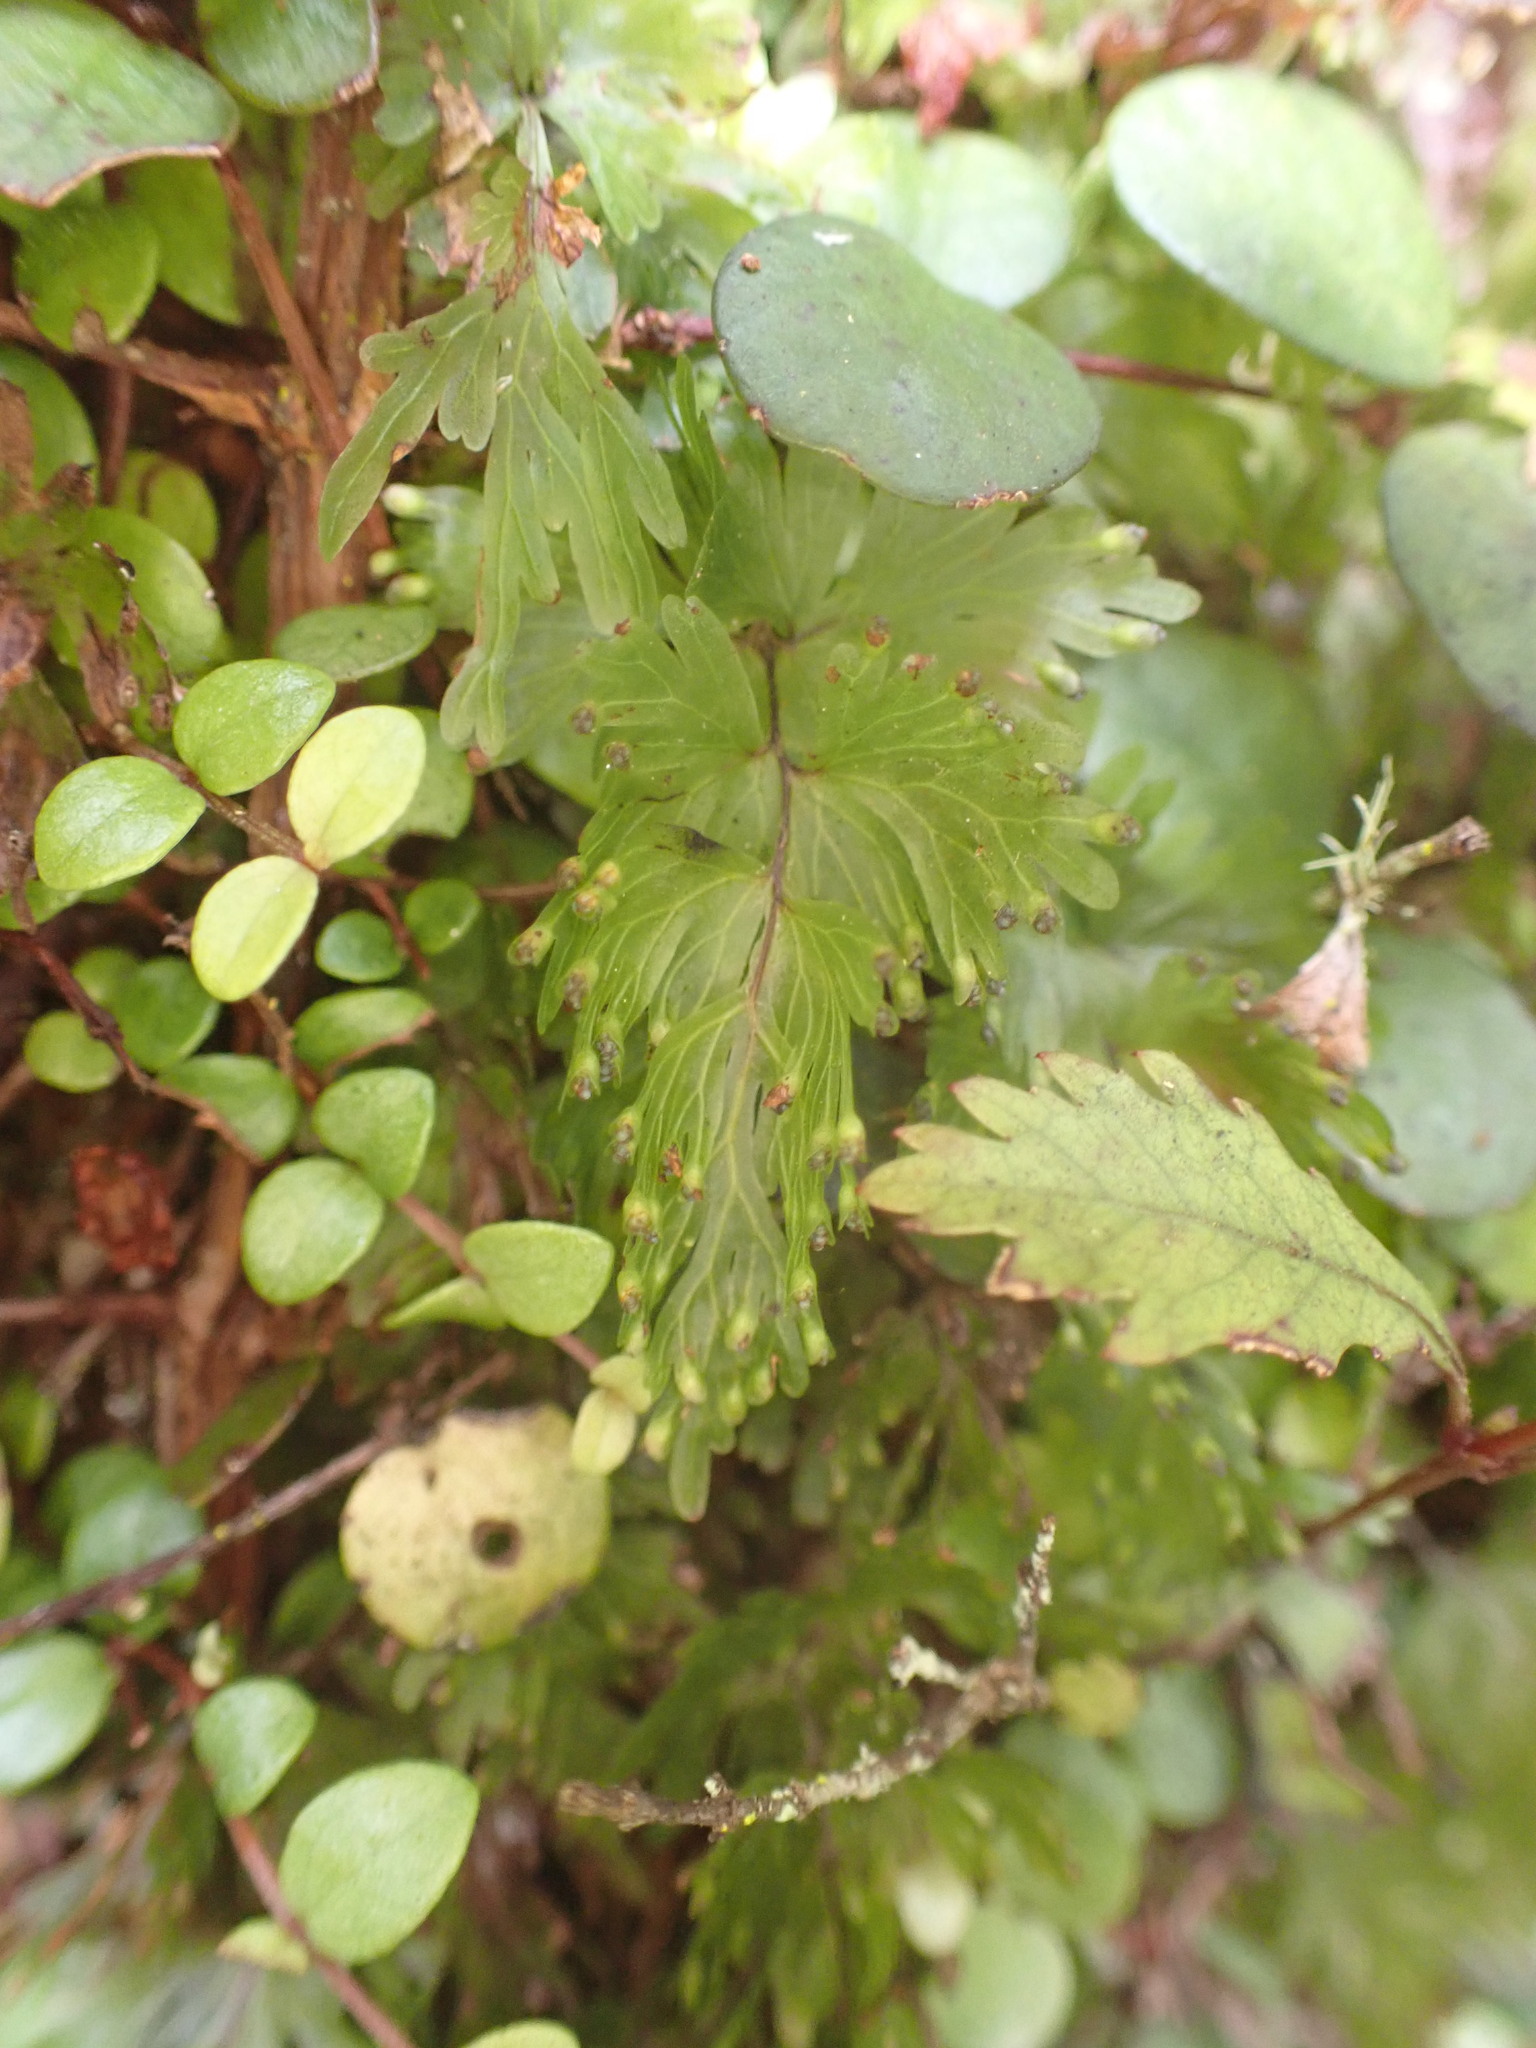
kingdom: Plantae
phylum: Tracheophyta
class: Polypodiopsida
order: Hymenophyllales
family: Hymenophyllaceae
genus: Hymenophyllum
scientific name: Hymenophyllum flabellatum
